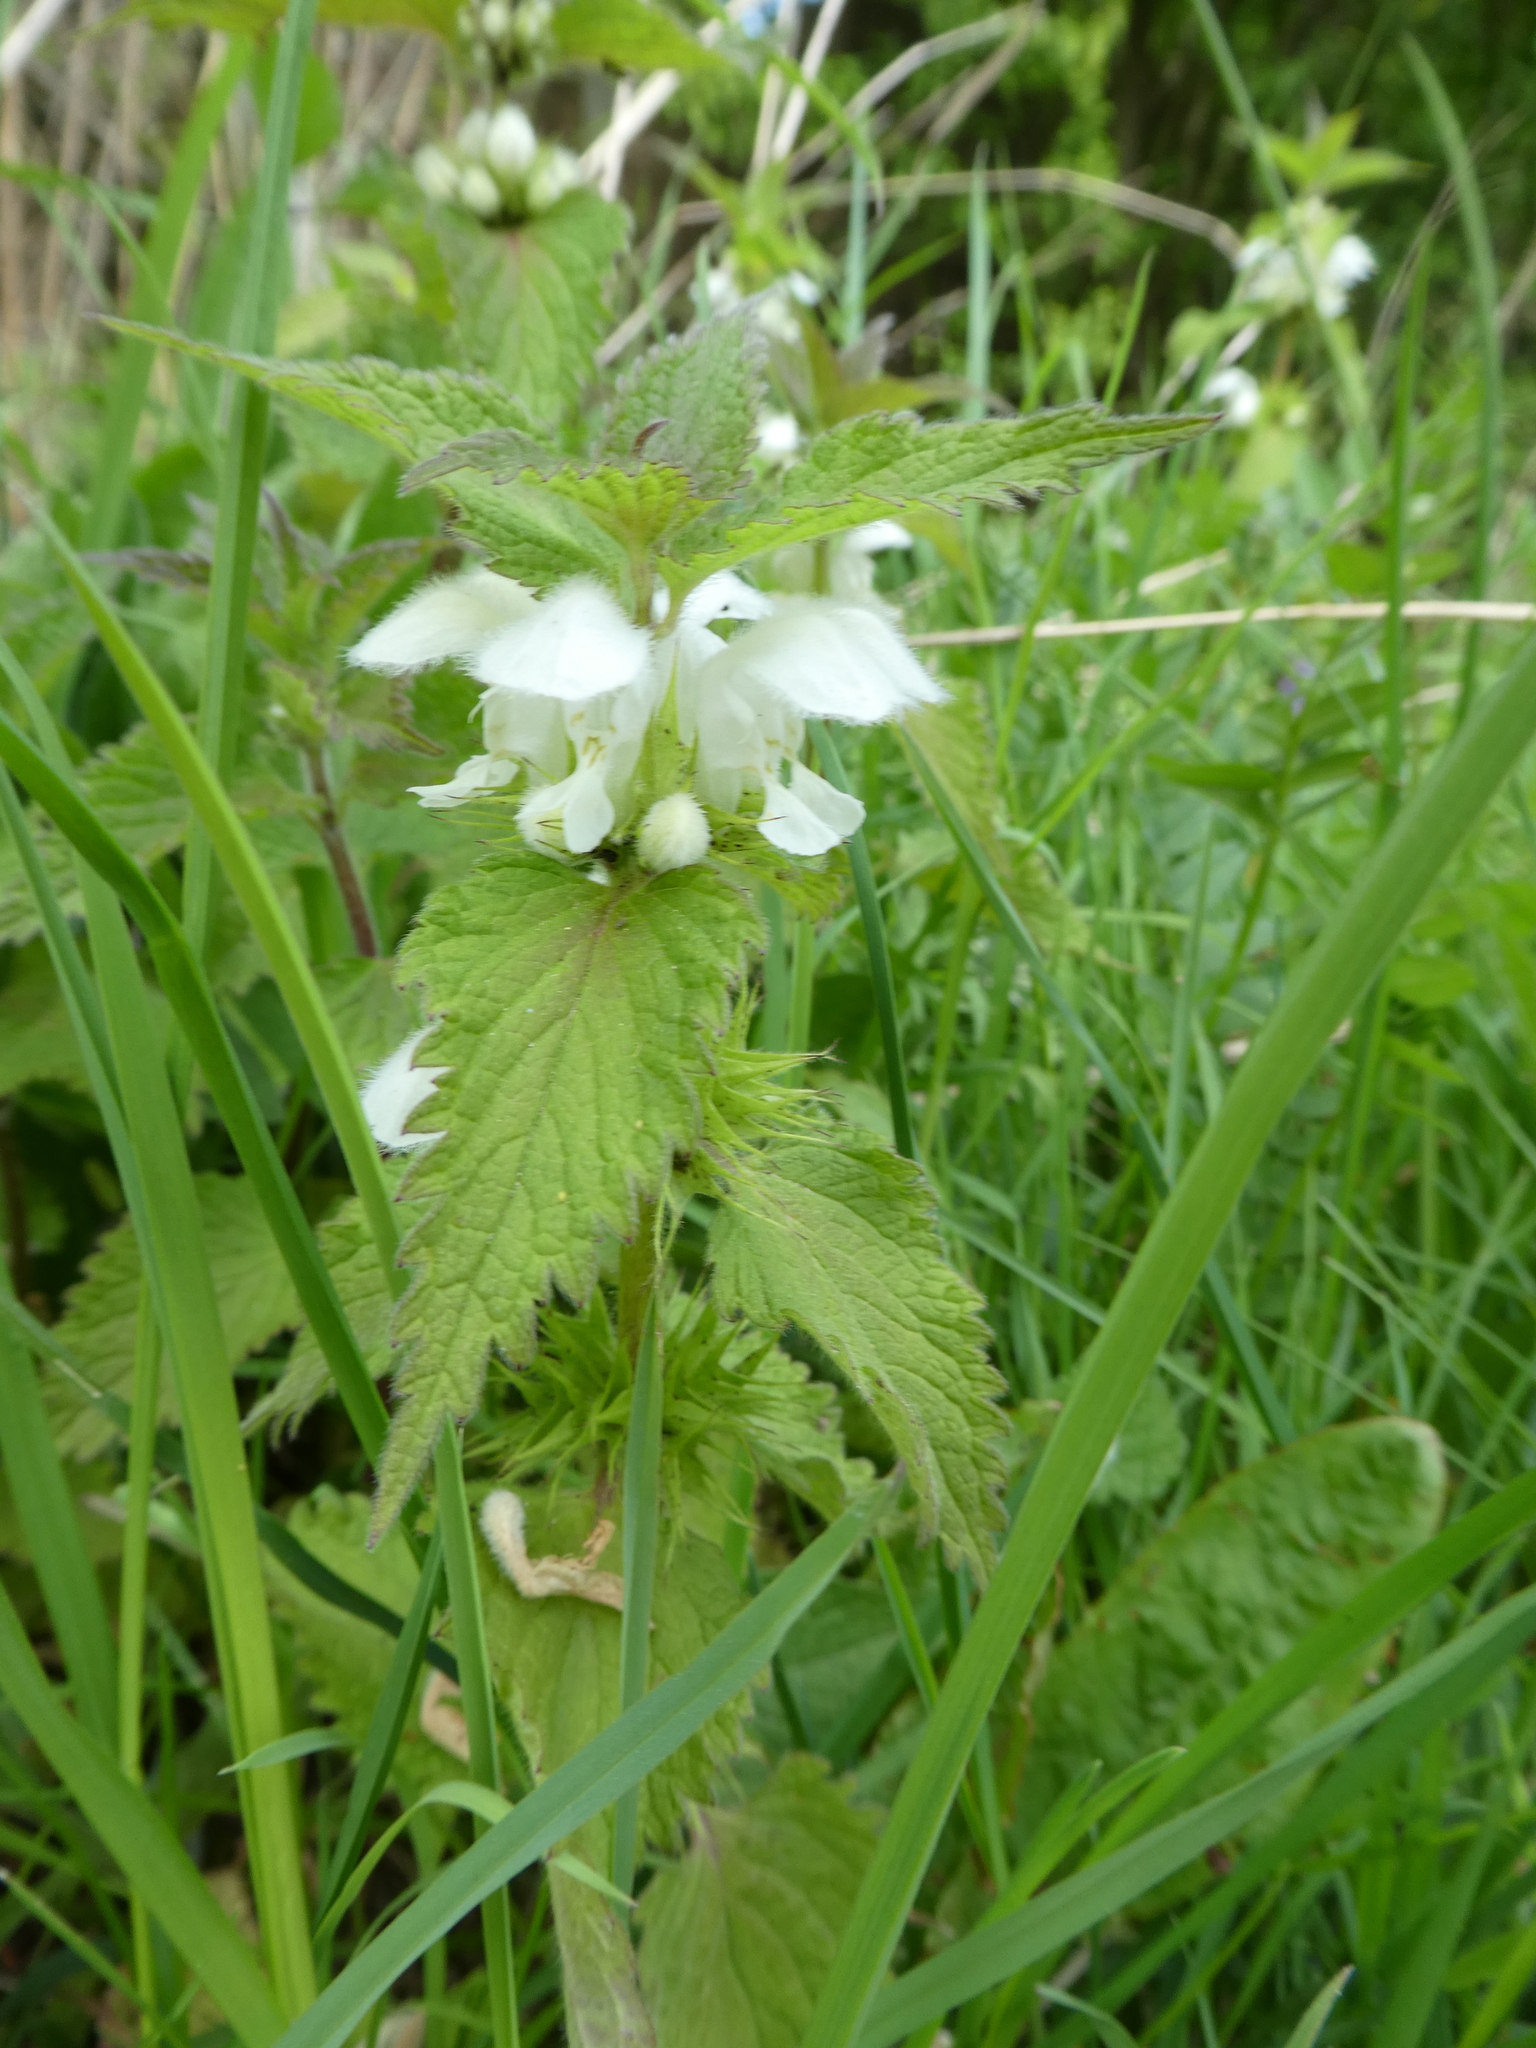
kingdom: Plantae
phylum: Tracheophyta
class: Magnoliopsida
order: Lamiales
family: Lamiaceae
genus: Lamium
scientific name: Lamium album
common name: White dead-nettle
